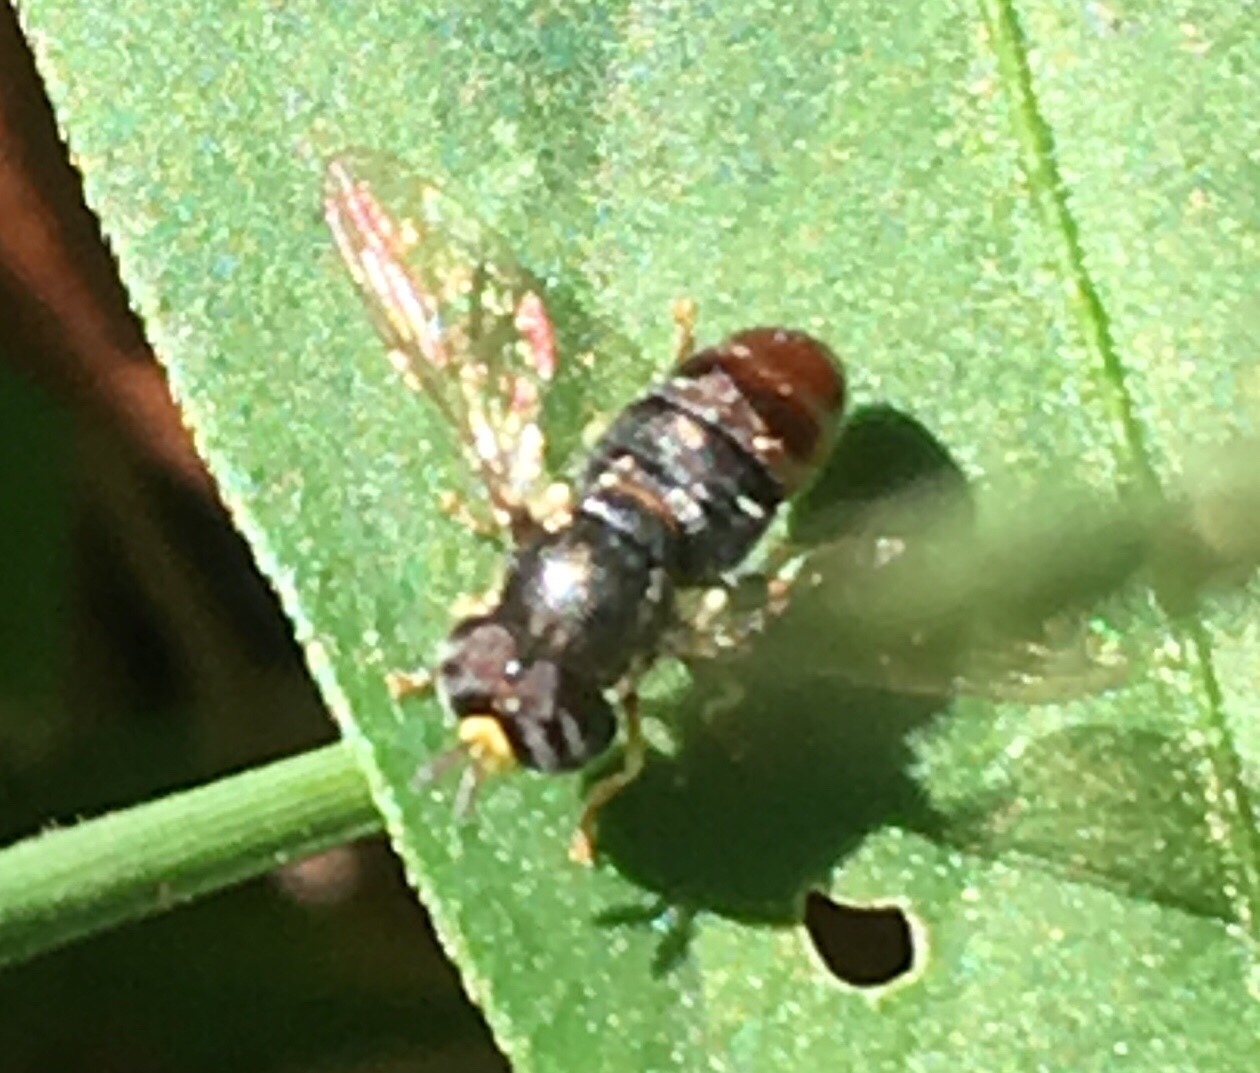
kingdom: Animalia
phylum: Arthropoda
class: Insecta
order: Diptera
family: Syrphidae
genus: Paragus
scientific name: Paragus
